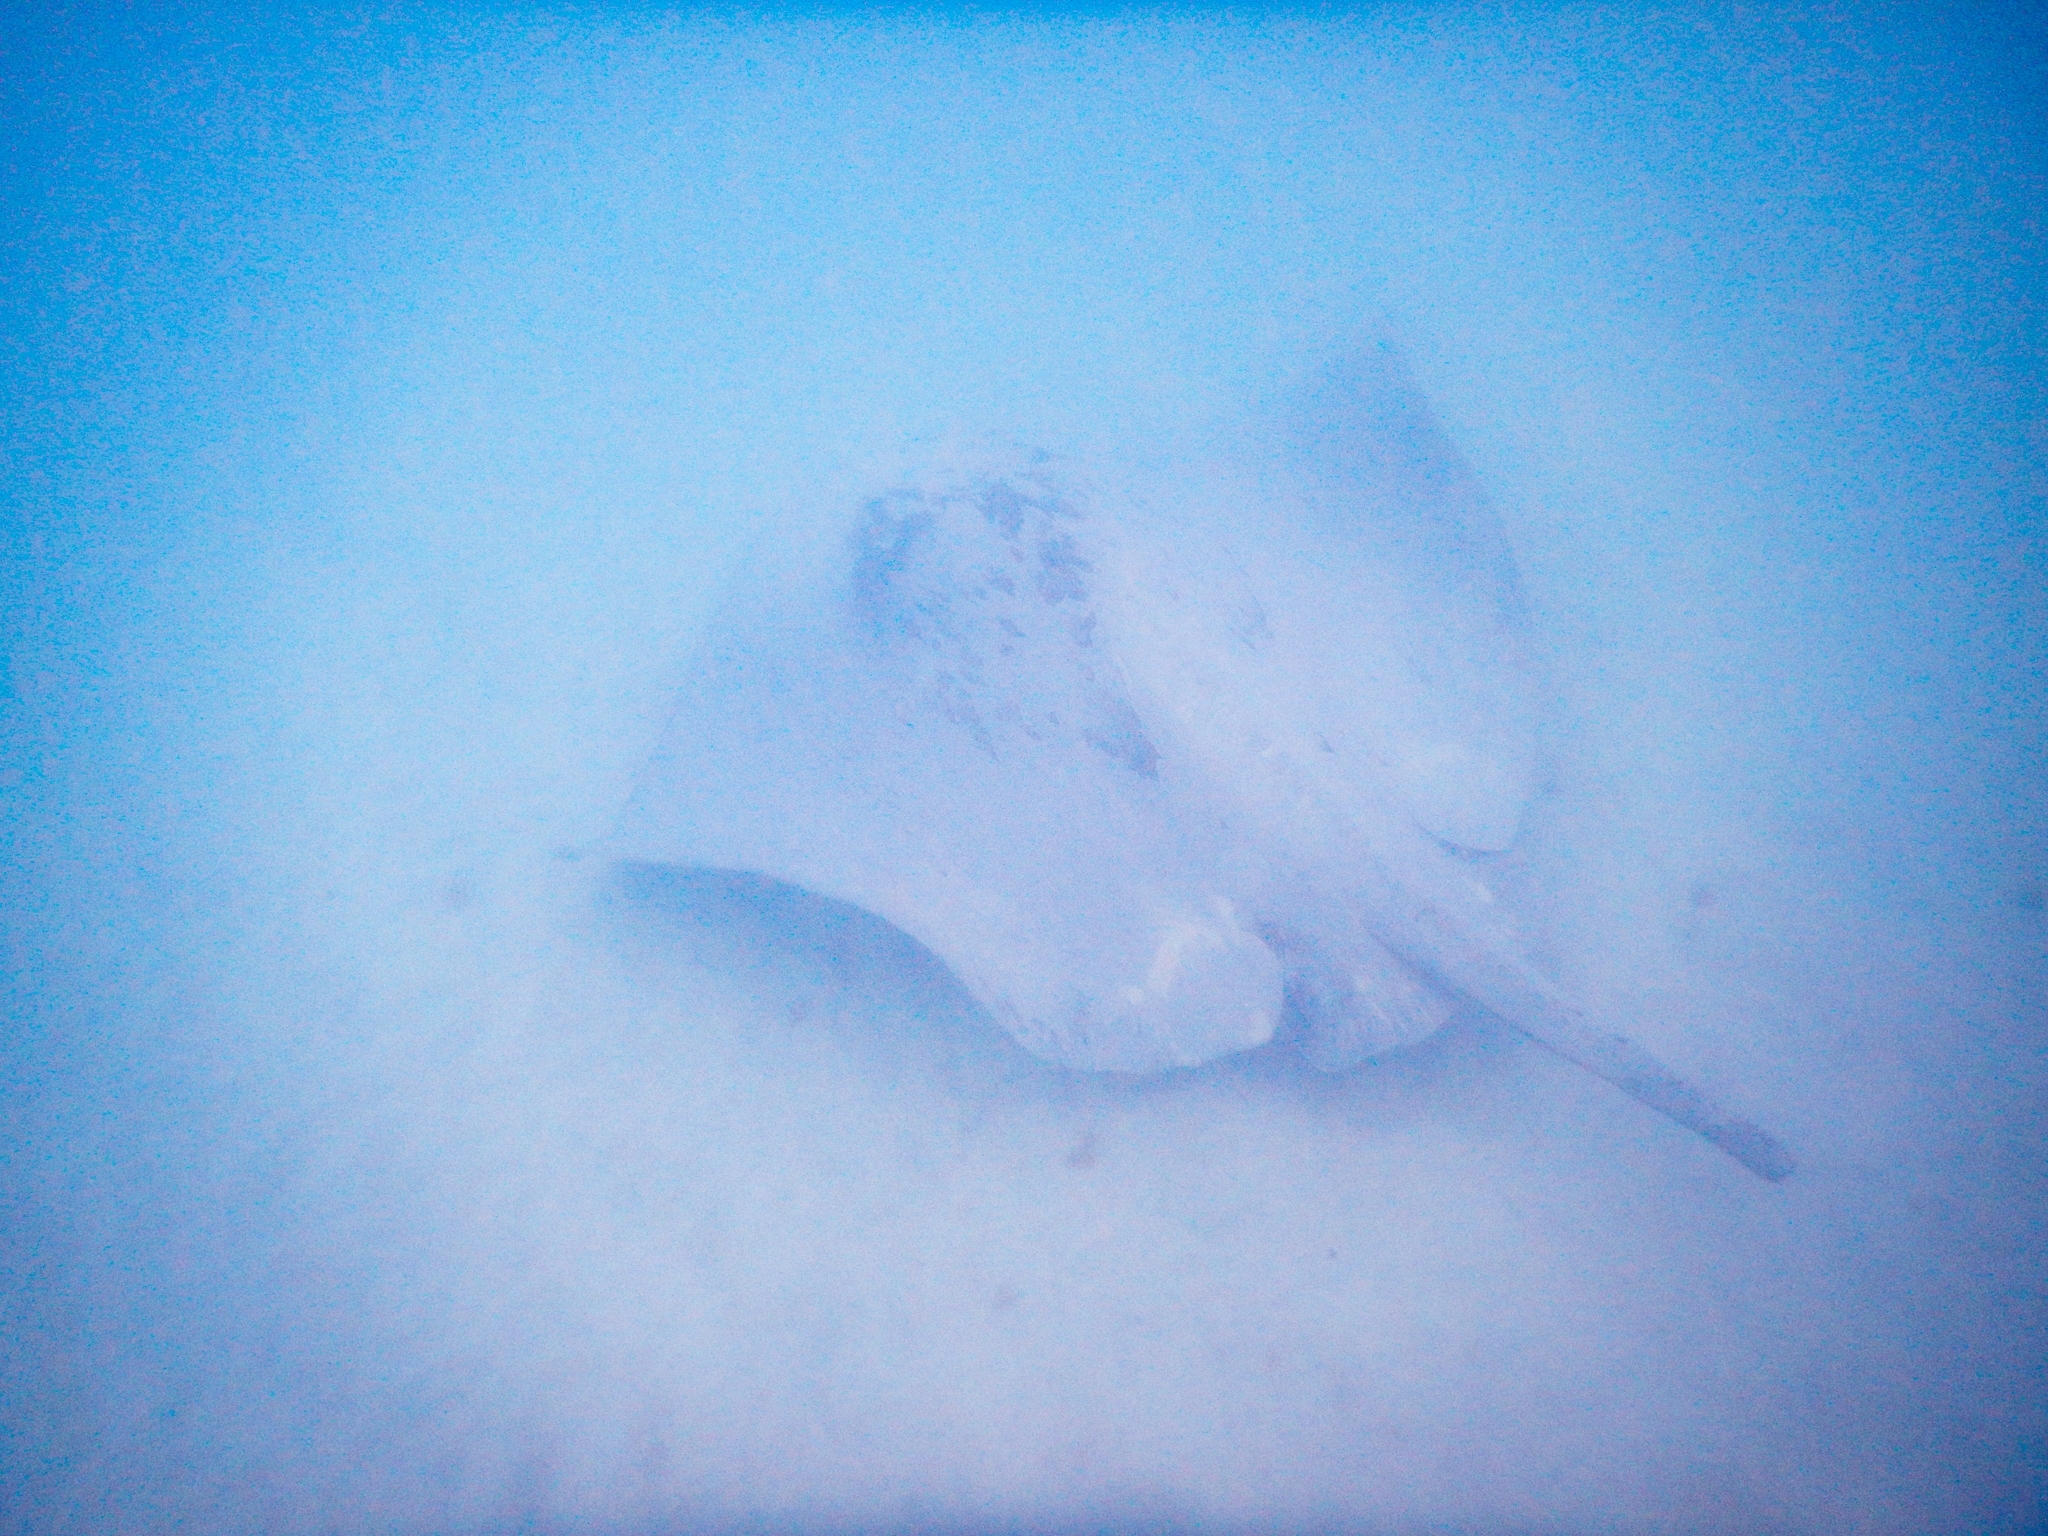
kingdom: Animalia
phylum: Chordata
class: Elasmobranchii
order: Myliobatiformes
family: Dasyatidae
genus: Bathytoshia
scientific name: Bathytoshia lata
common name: Brown stingray
